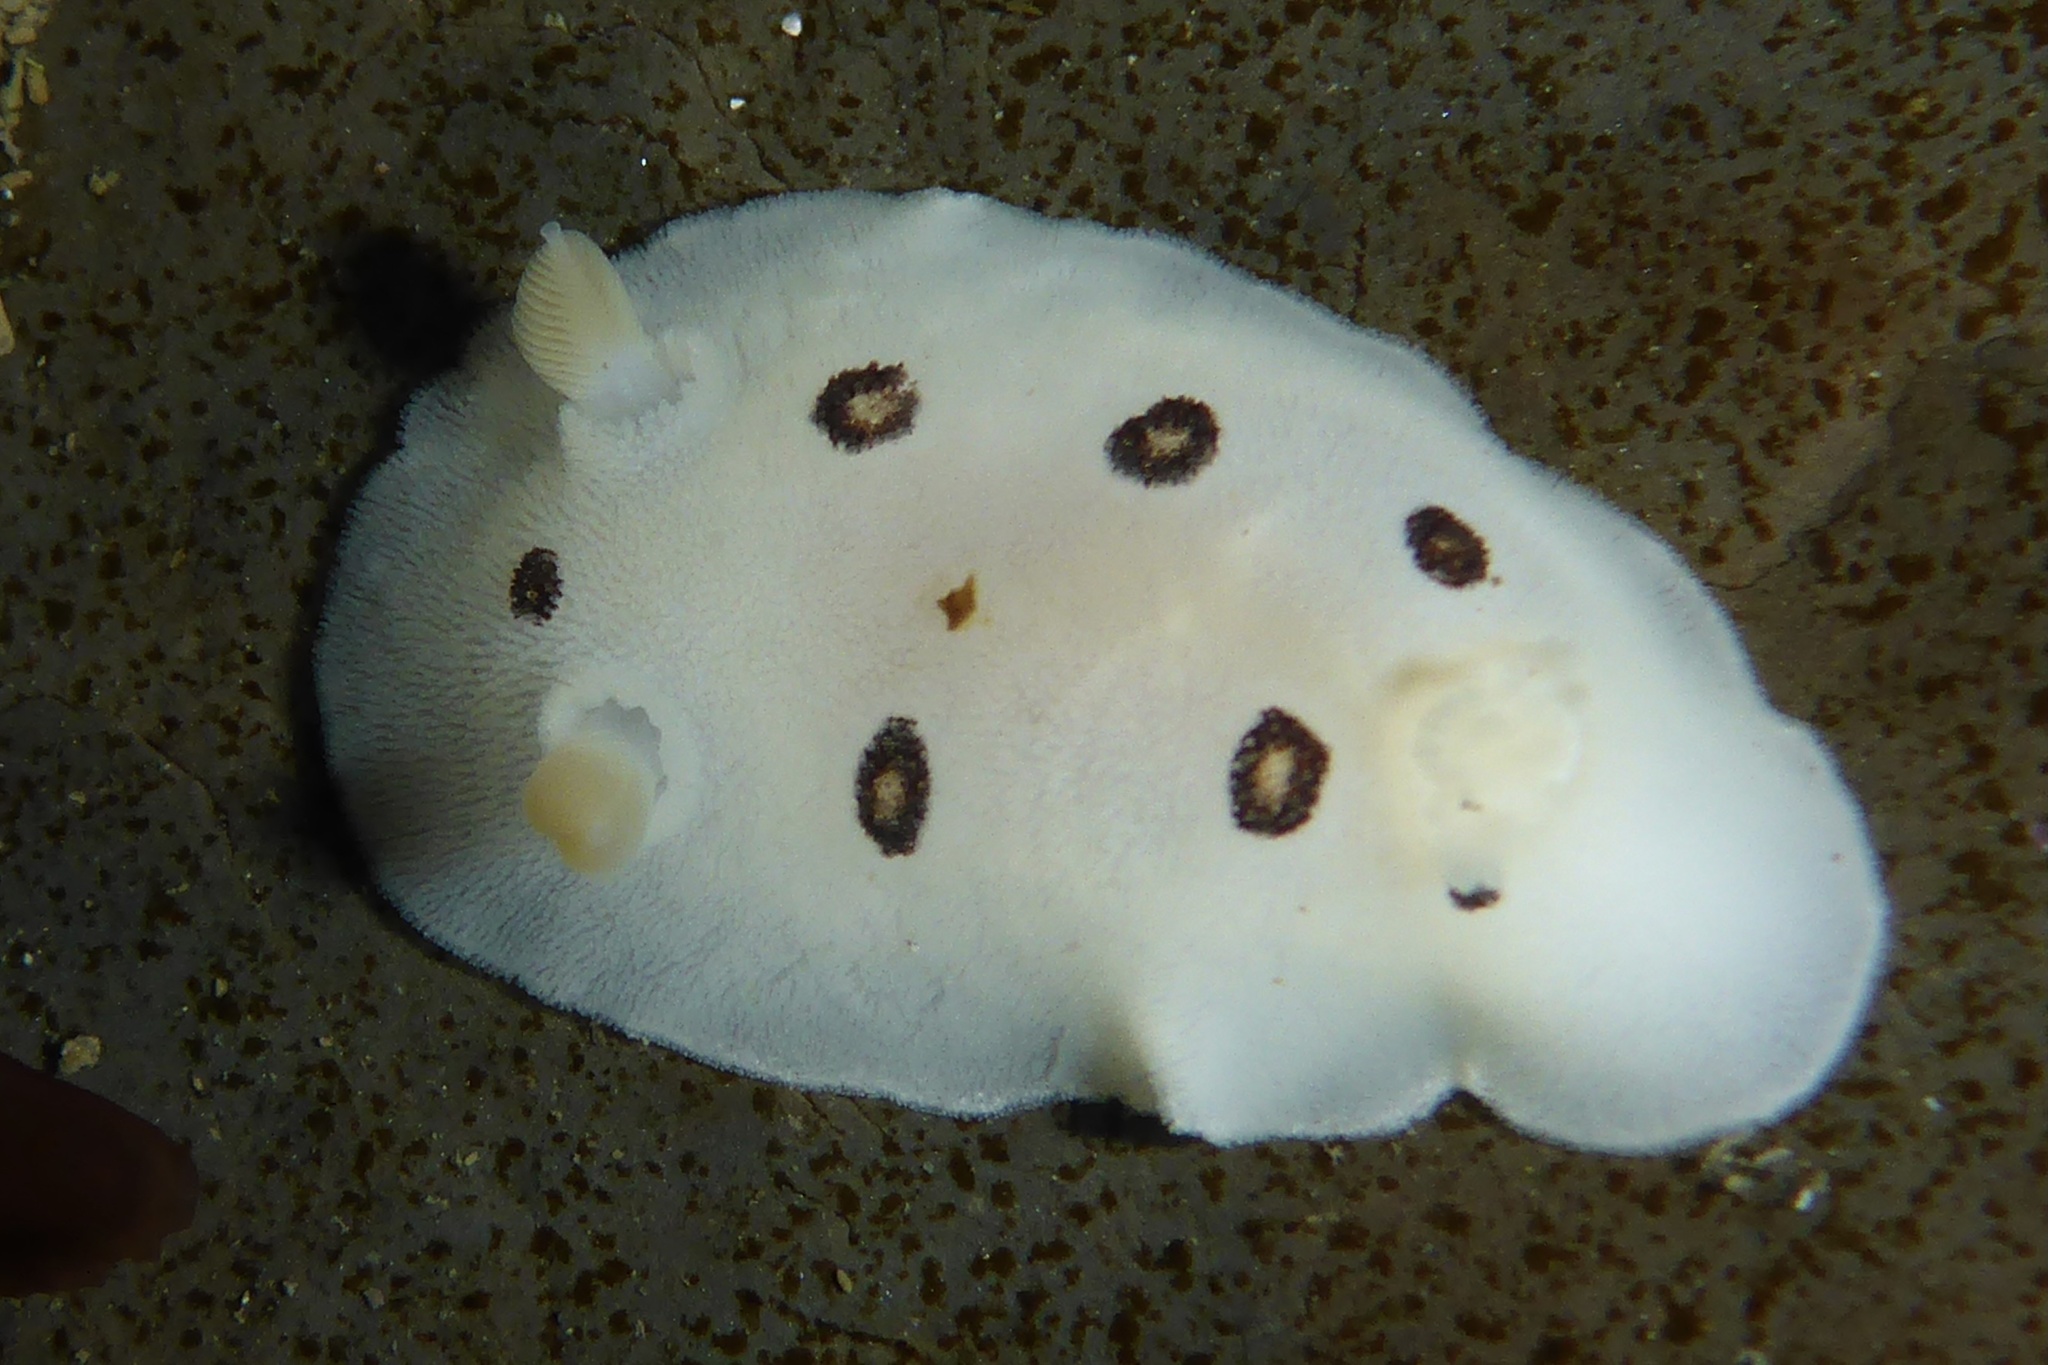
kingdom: Animalia
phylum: Mollusca
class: Gastropoda
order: Nudibranchia
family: Discodorididae
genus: Diaulula
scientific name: Diaulula sandiegensis
